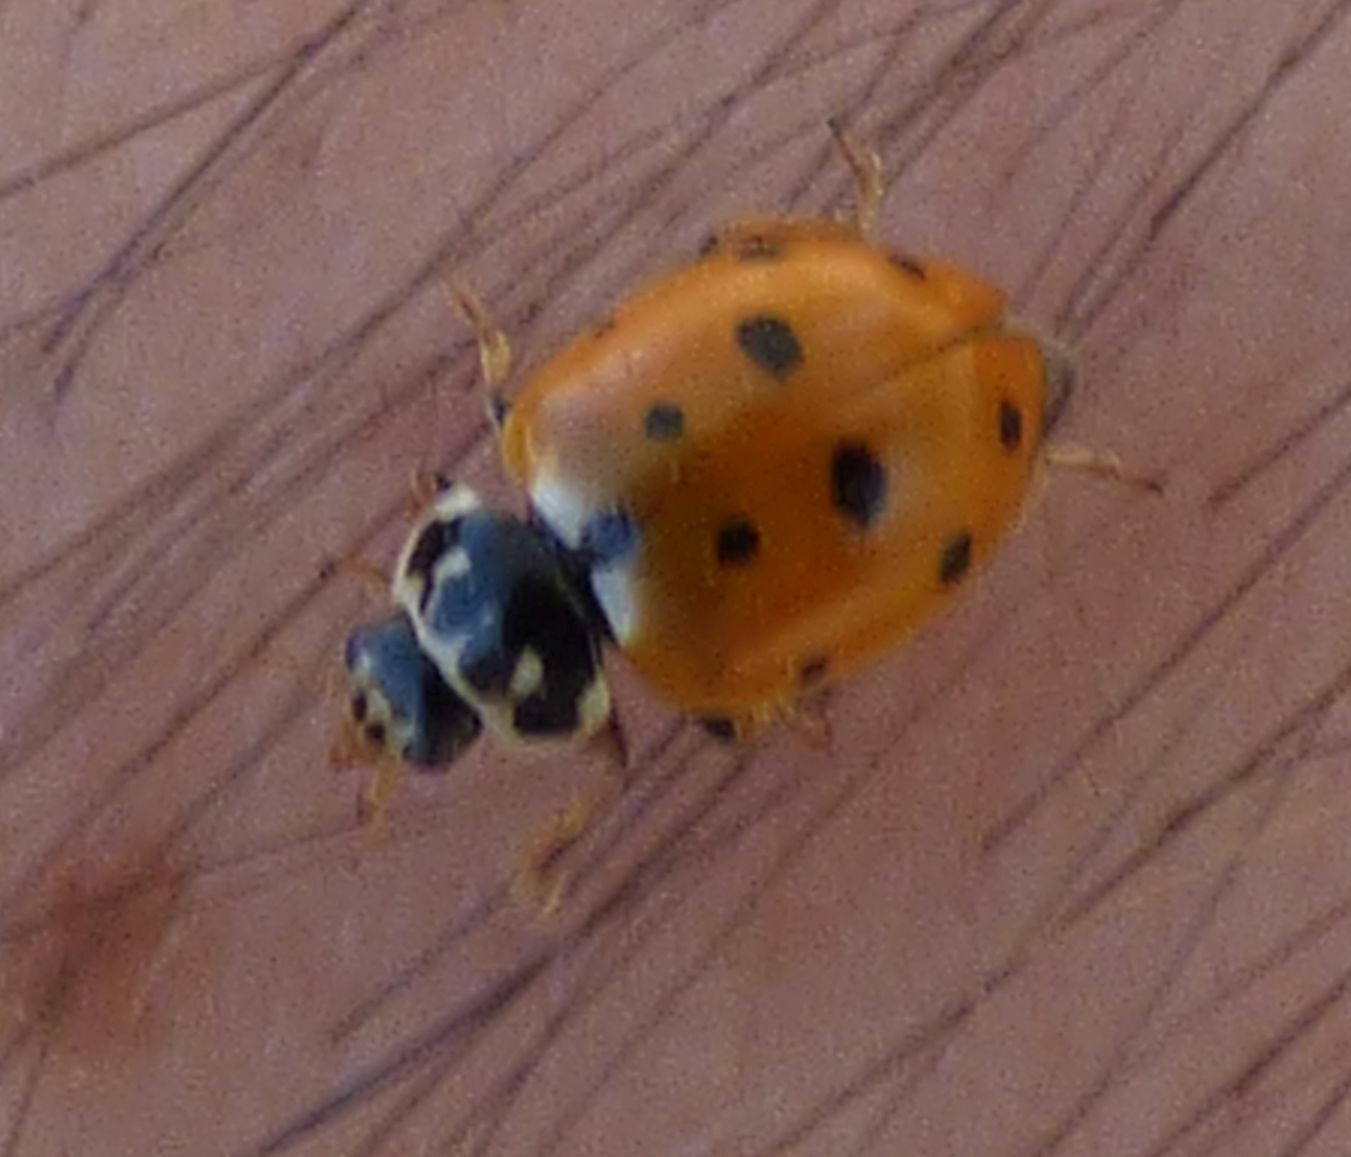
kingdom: Animalia
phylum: Arthropoda
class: Insecta
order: Coleoptera
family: Coccinellidae
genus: Hippodamia
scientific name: Hippodamia variegata
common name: Ladybird beetle
